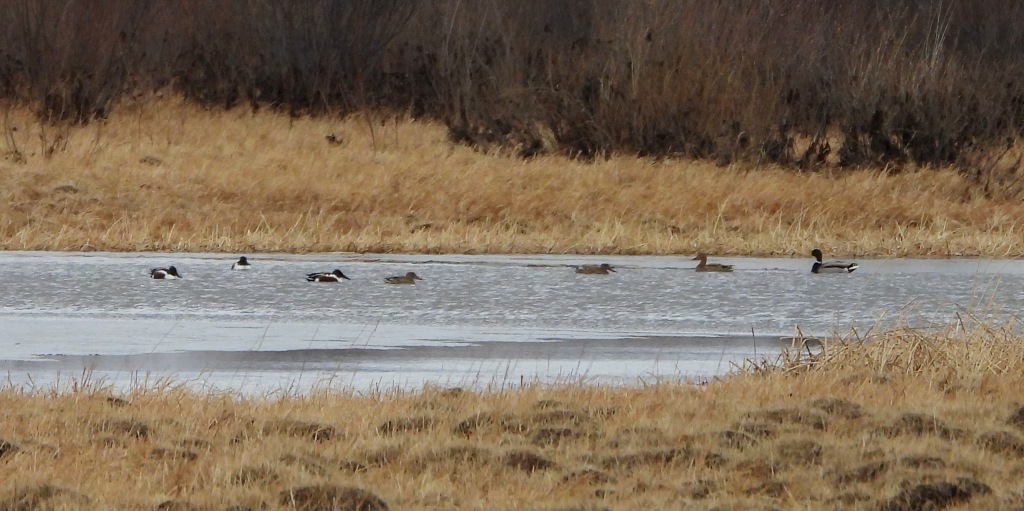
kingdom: Animalia
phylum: Chordata
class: Aves
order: Anseriformes
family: Anatidae
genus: Spatula
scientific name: Spatula clypeata
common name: Northern shoveler
